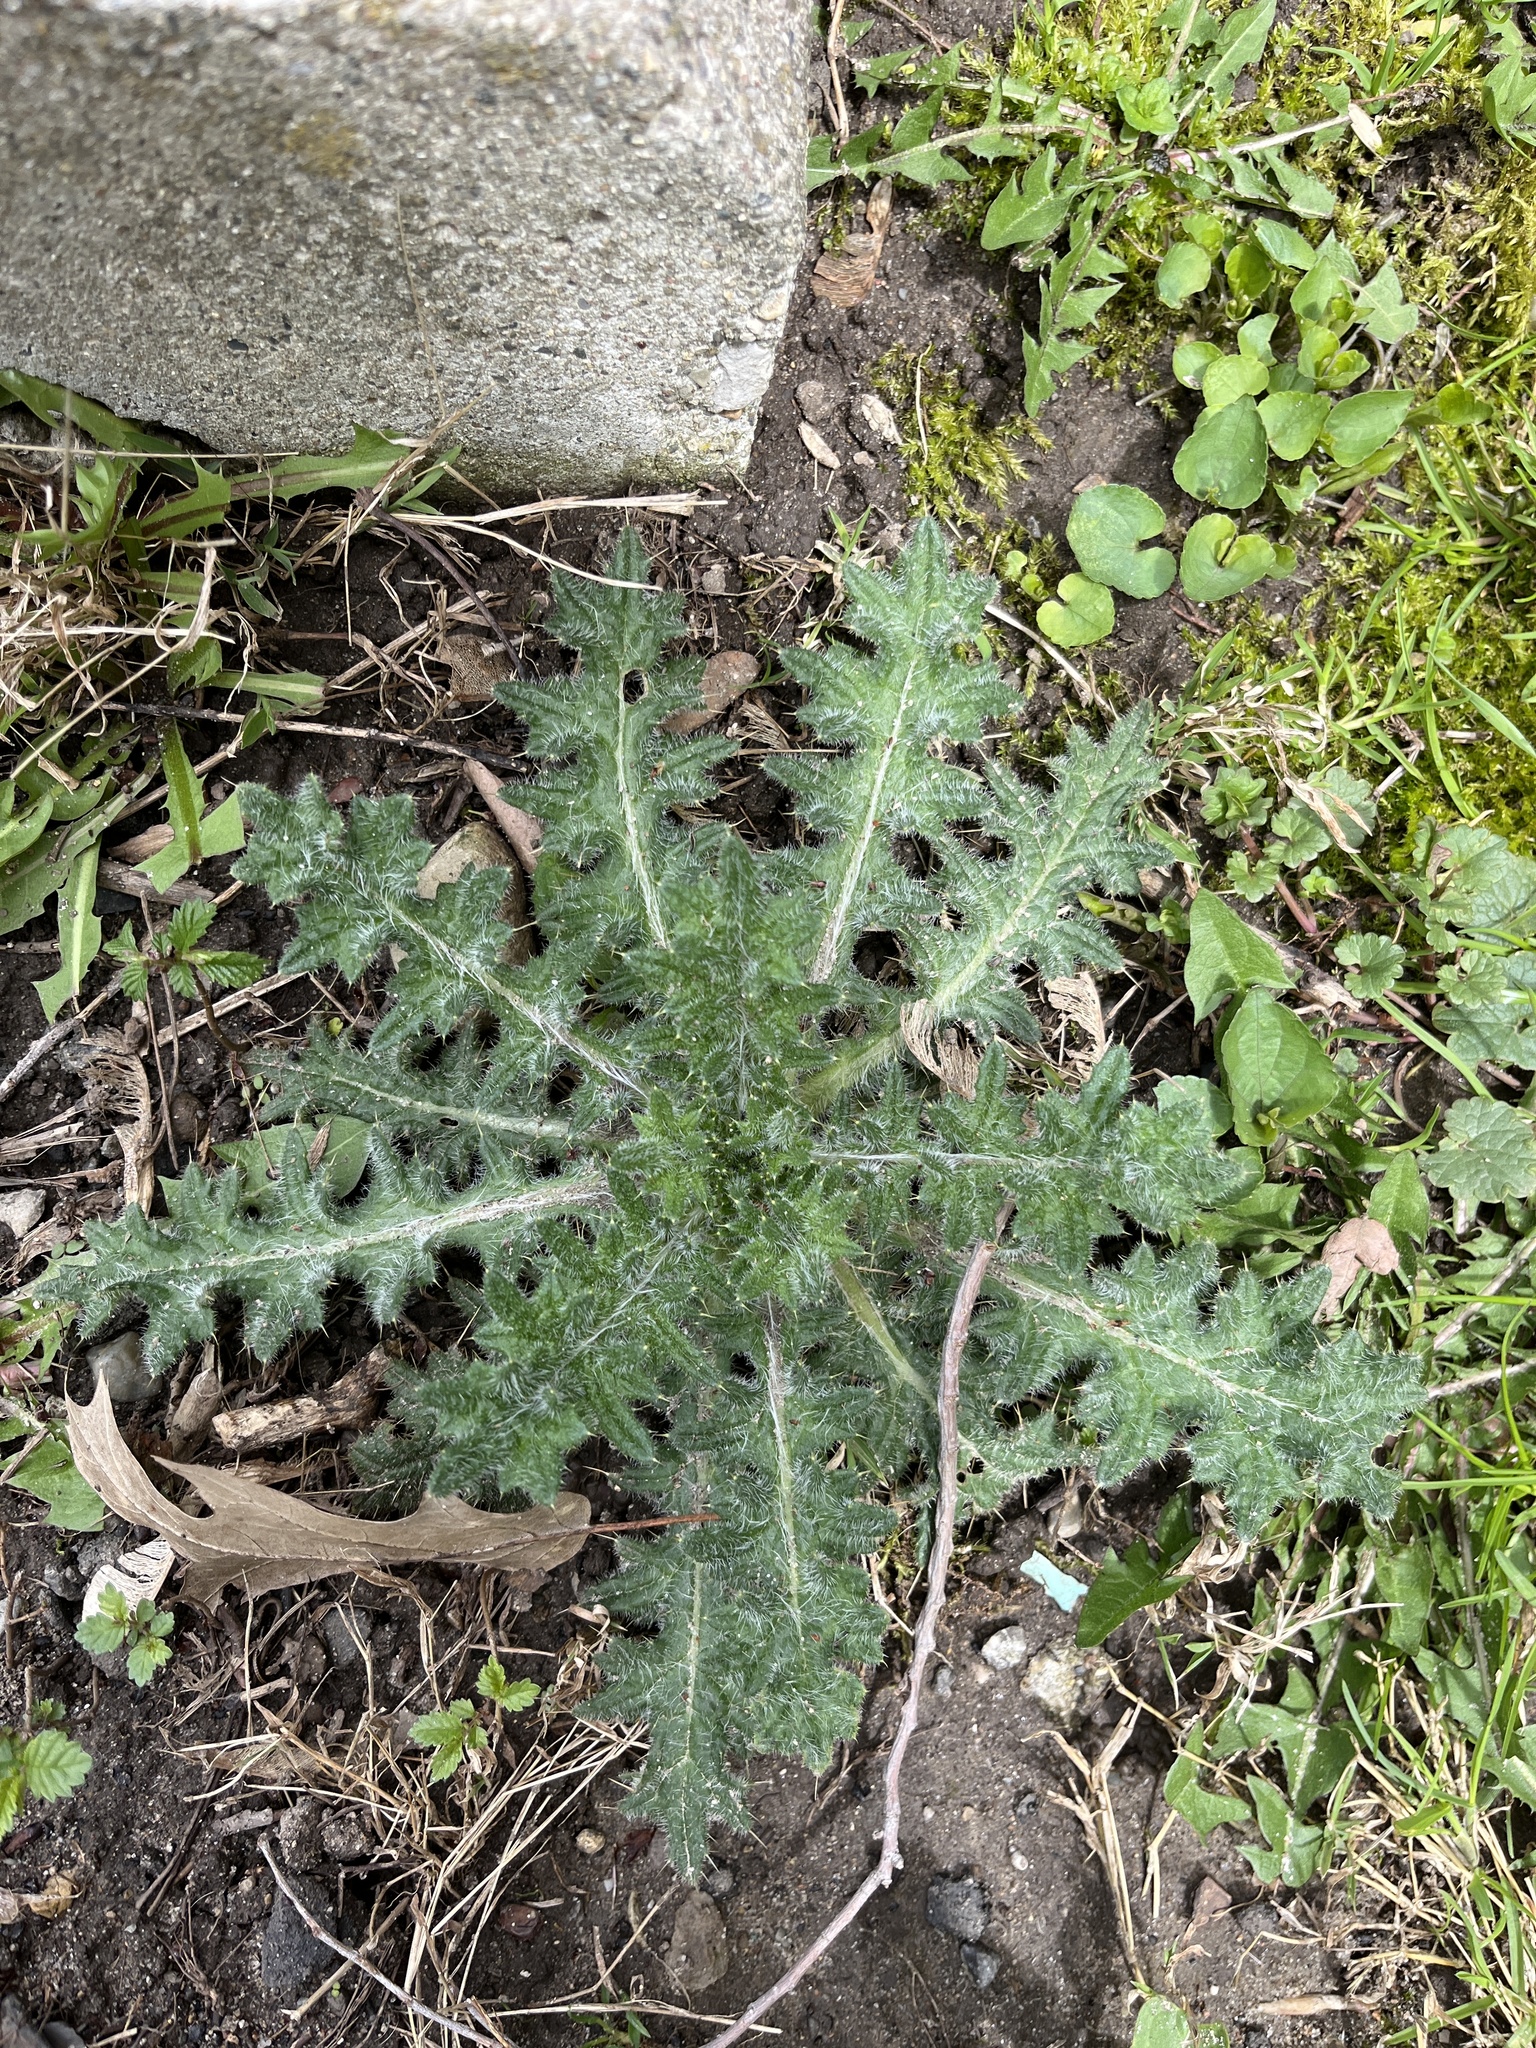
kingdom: Plantae
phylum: Tracheophyta
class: Magnoliopsida
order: Asterales
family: Asteraceae
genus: Cirsium
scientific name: Cirsium vulgare
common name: Bull thistle
